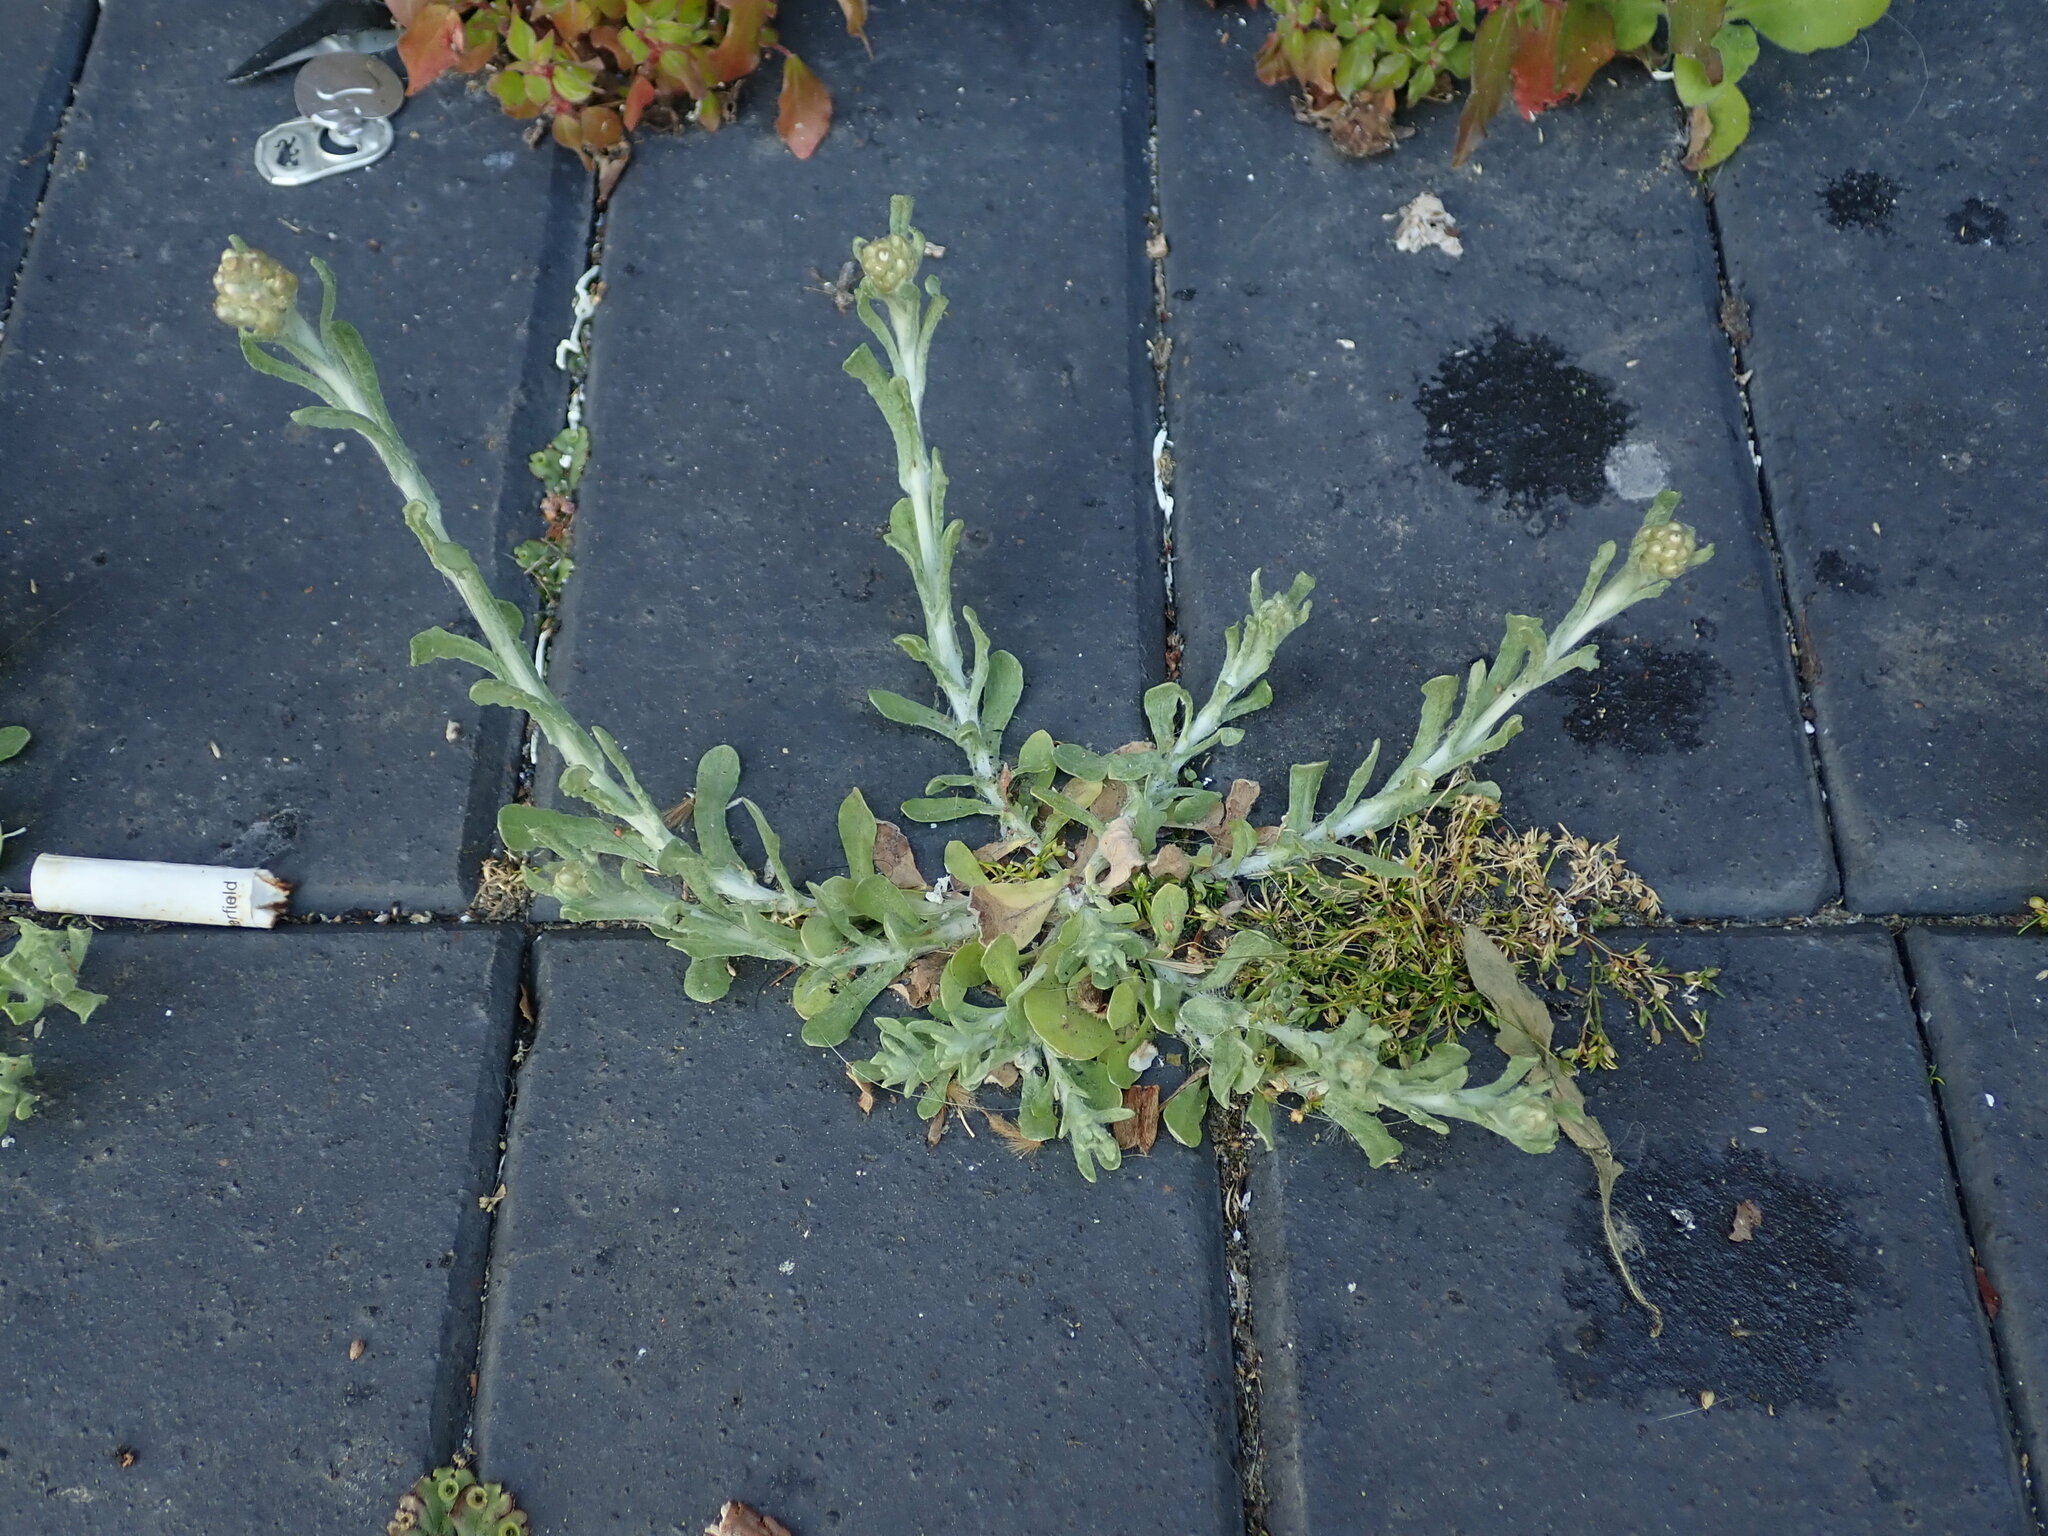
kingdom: Plantae
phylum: Tracheophyta
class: Magnoliopsida
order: Asterales
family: Asteraceae
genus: Helichrysum
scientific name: Helichrysum luteoalbum
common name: Daisy
